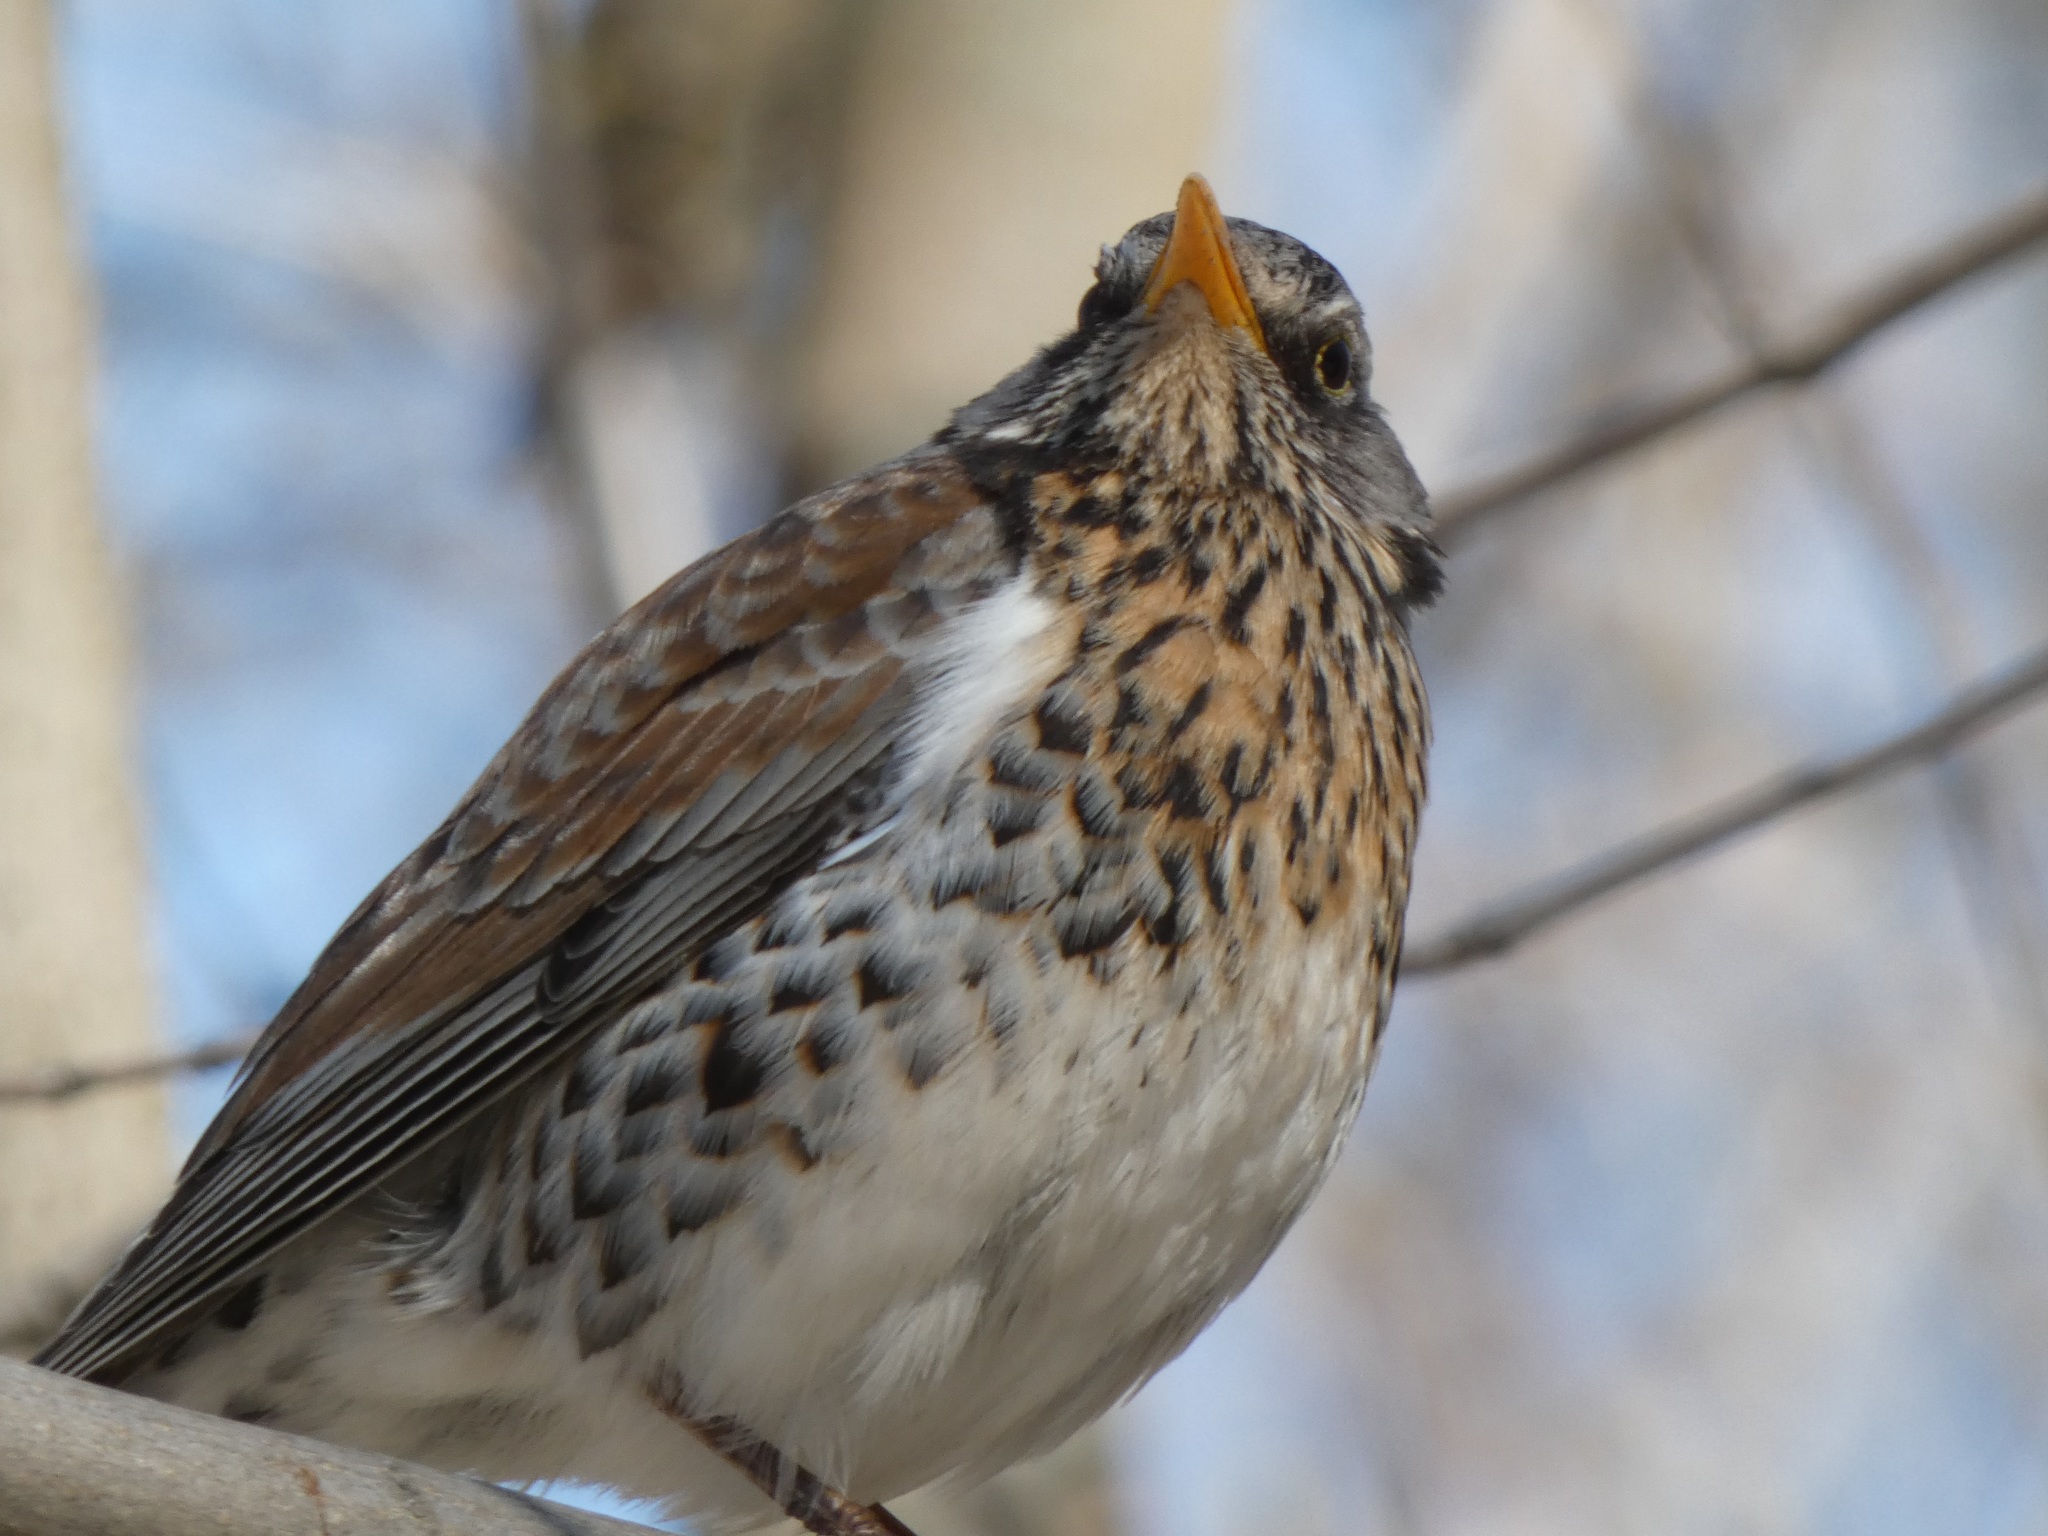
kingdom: Animalia
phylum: Chordata
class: Aves
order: Passeriformes
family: Turdidae
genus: Turdus
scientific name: Turdus pilaris
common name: Fieldfare
